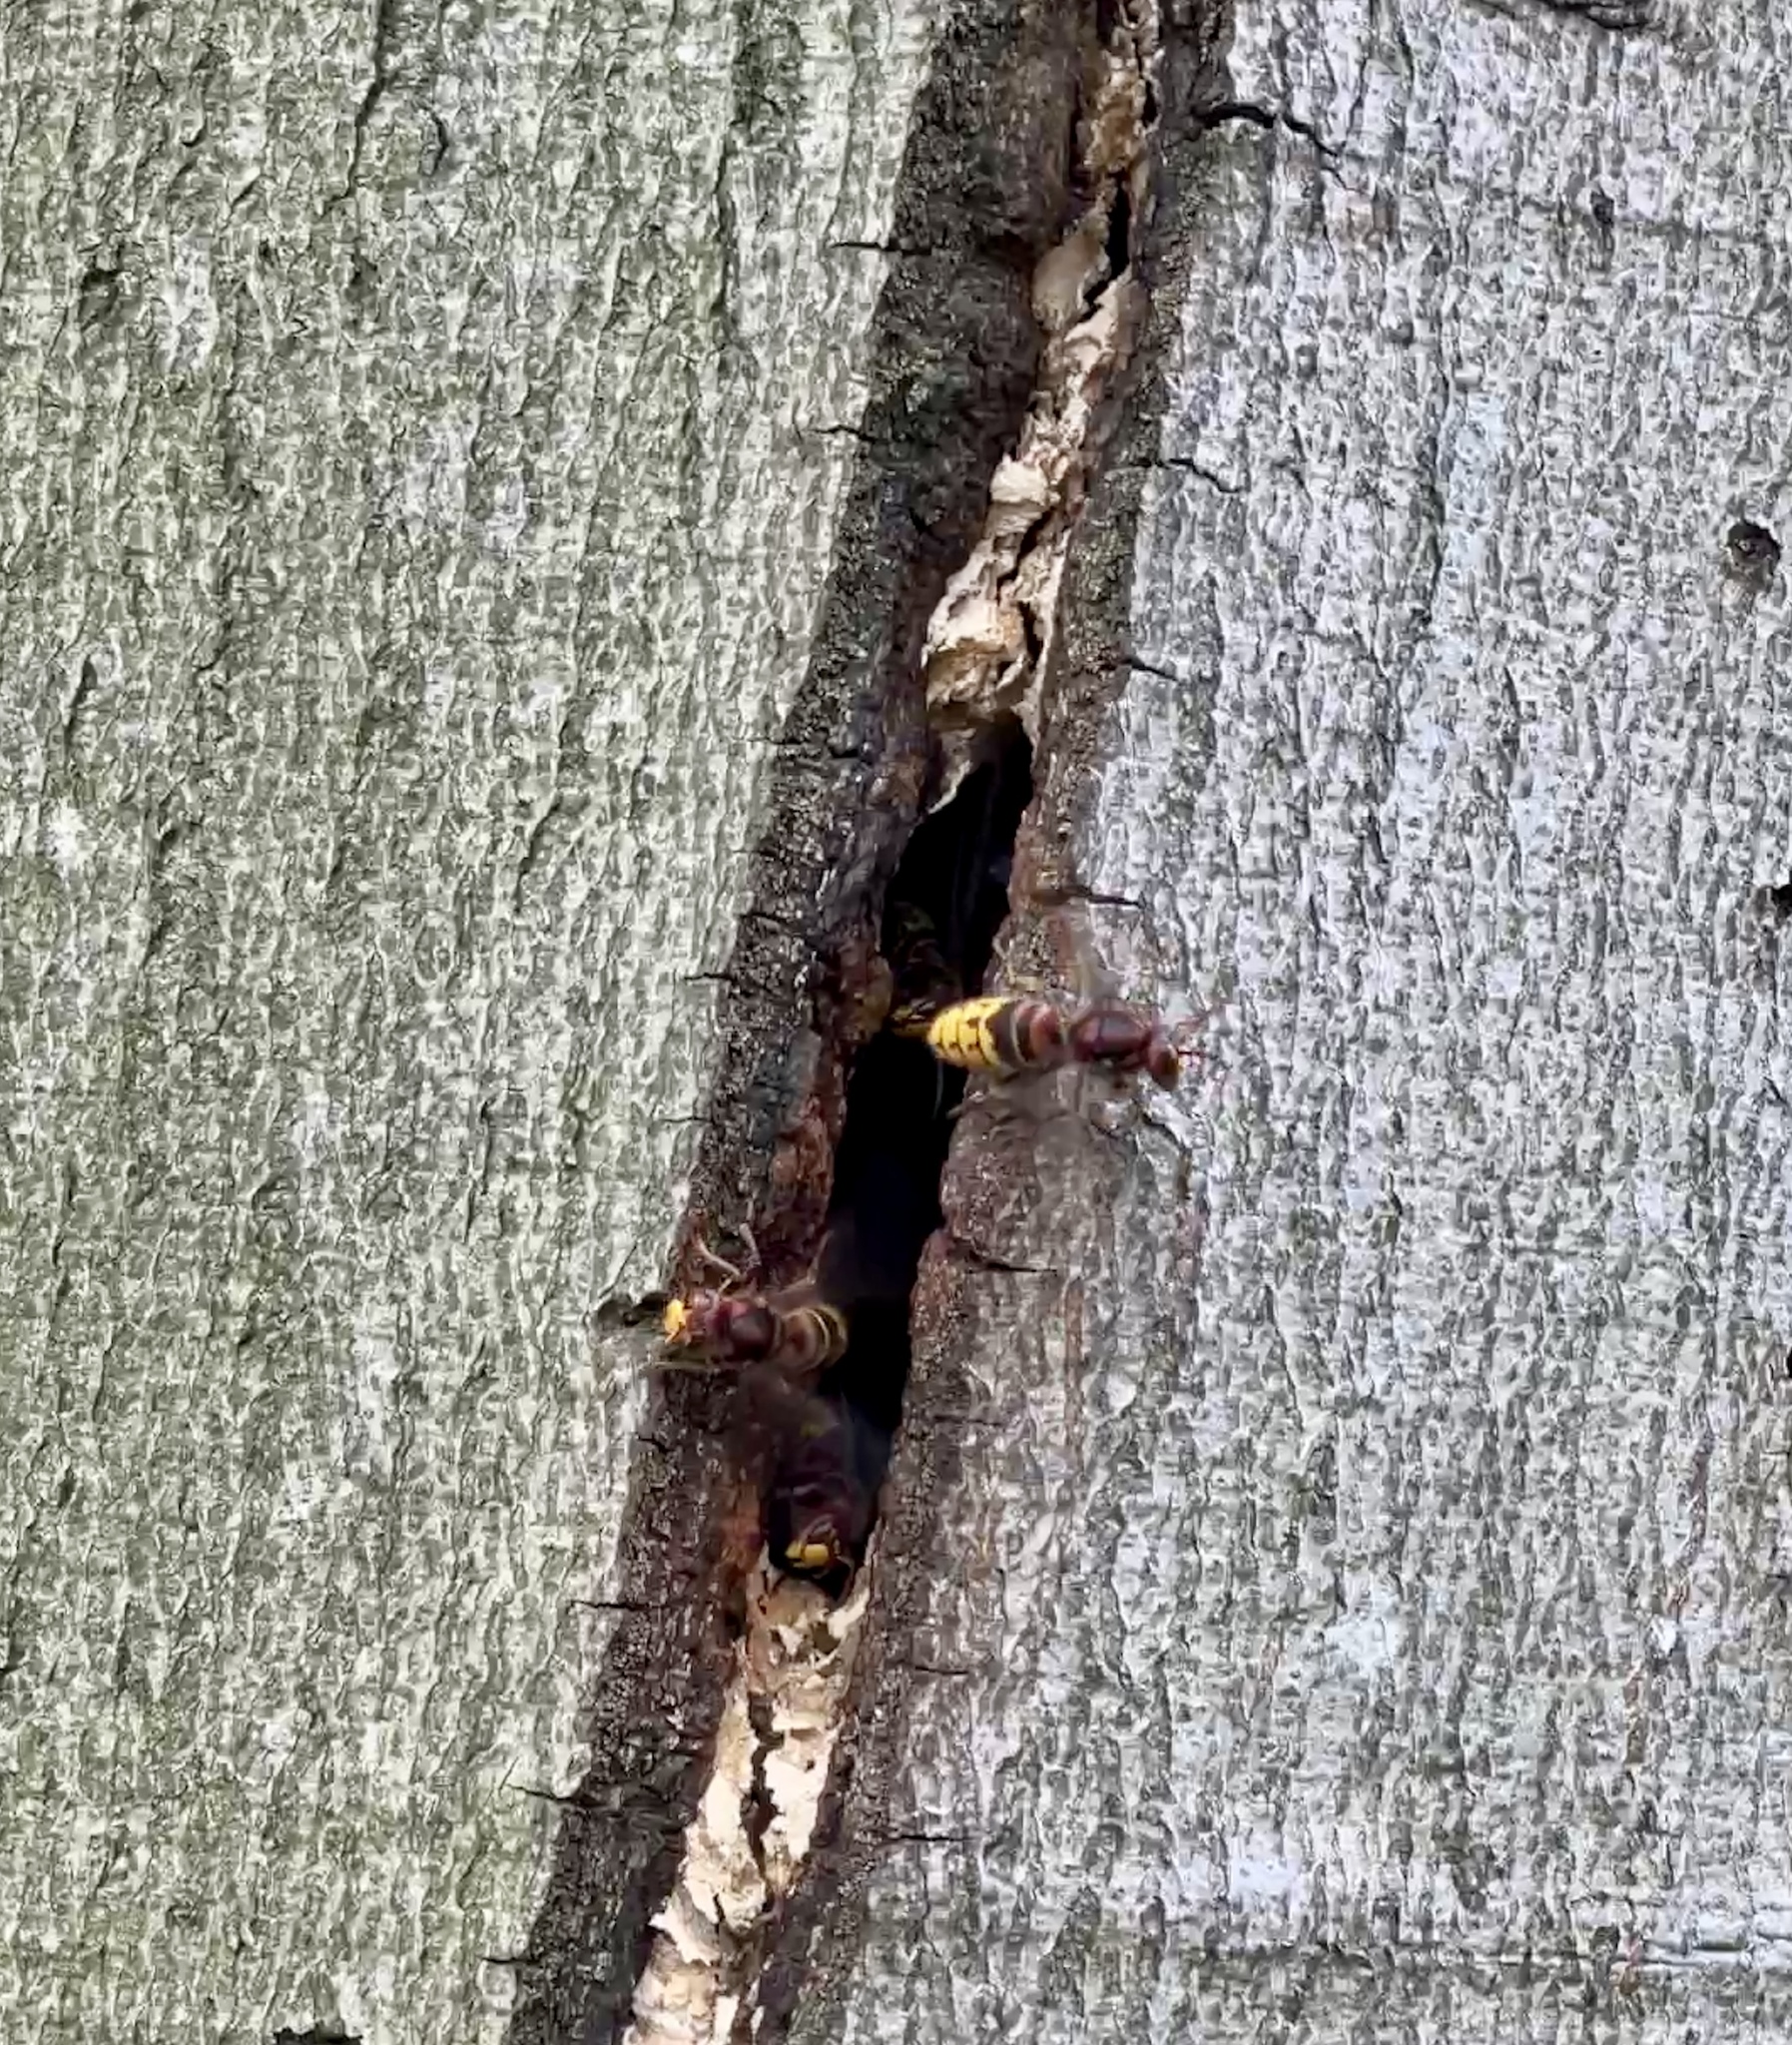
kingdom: Animalia
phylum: Arthropoda
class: Insecta
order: Hymenoptera
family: Vespidae
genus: Vespa
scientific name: Vespa crabro
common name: Hornet
